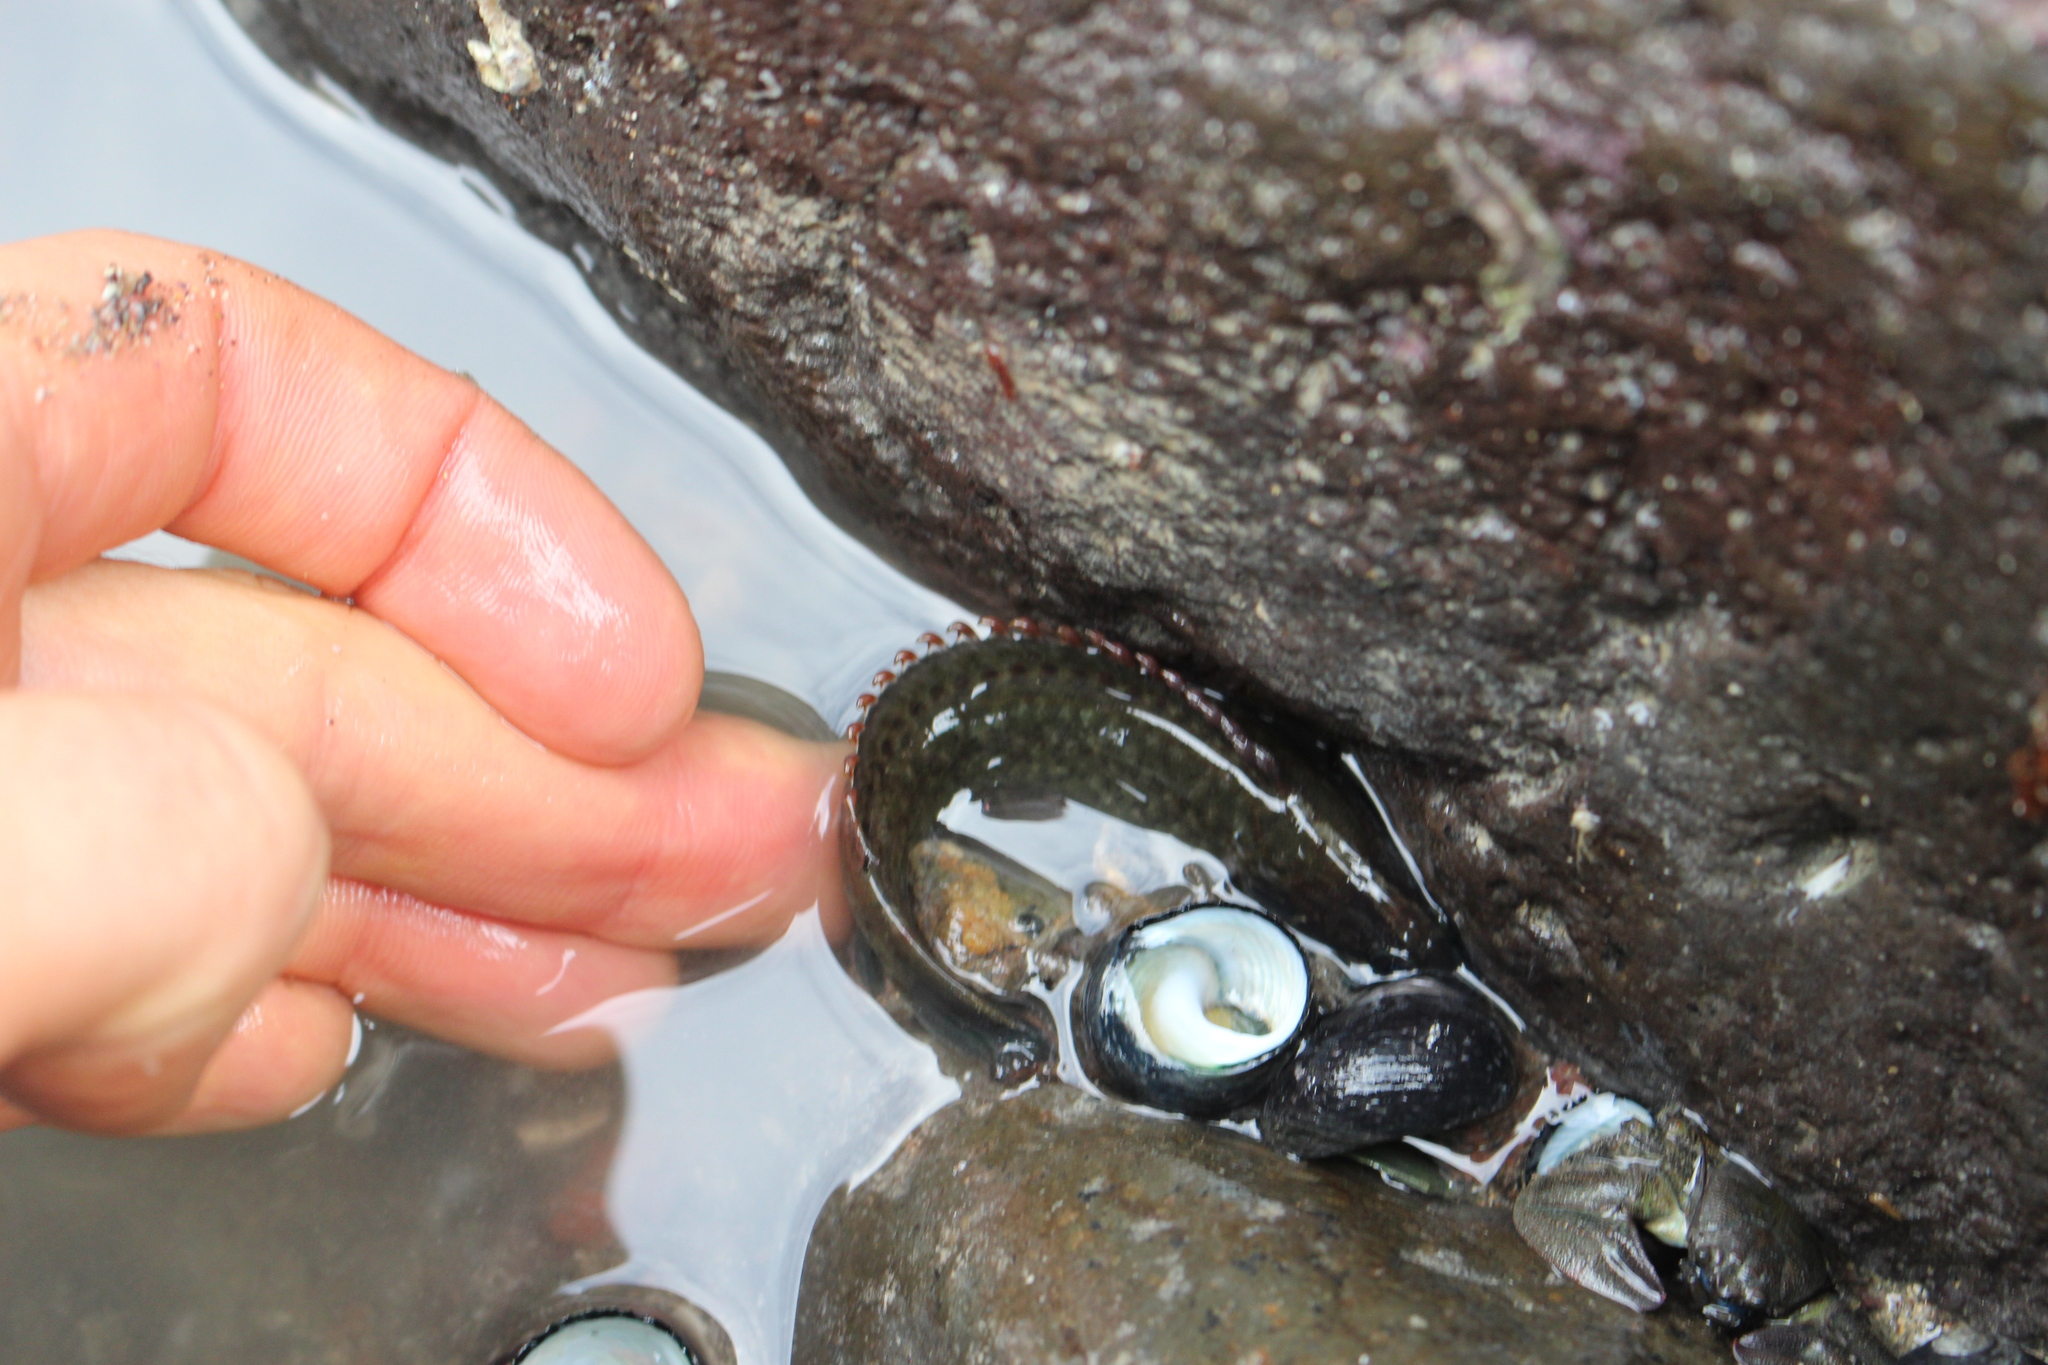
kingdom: Animalia
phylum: Chordata
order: Perciformes
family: Plesiopidae
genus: Acanthoclinus
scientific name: Acanthoclinus fuscus
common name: Olive rockfish
